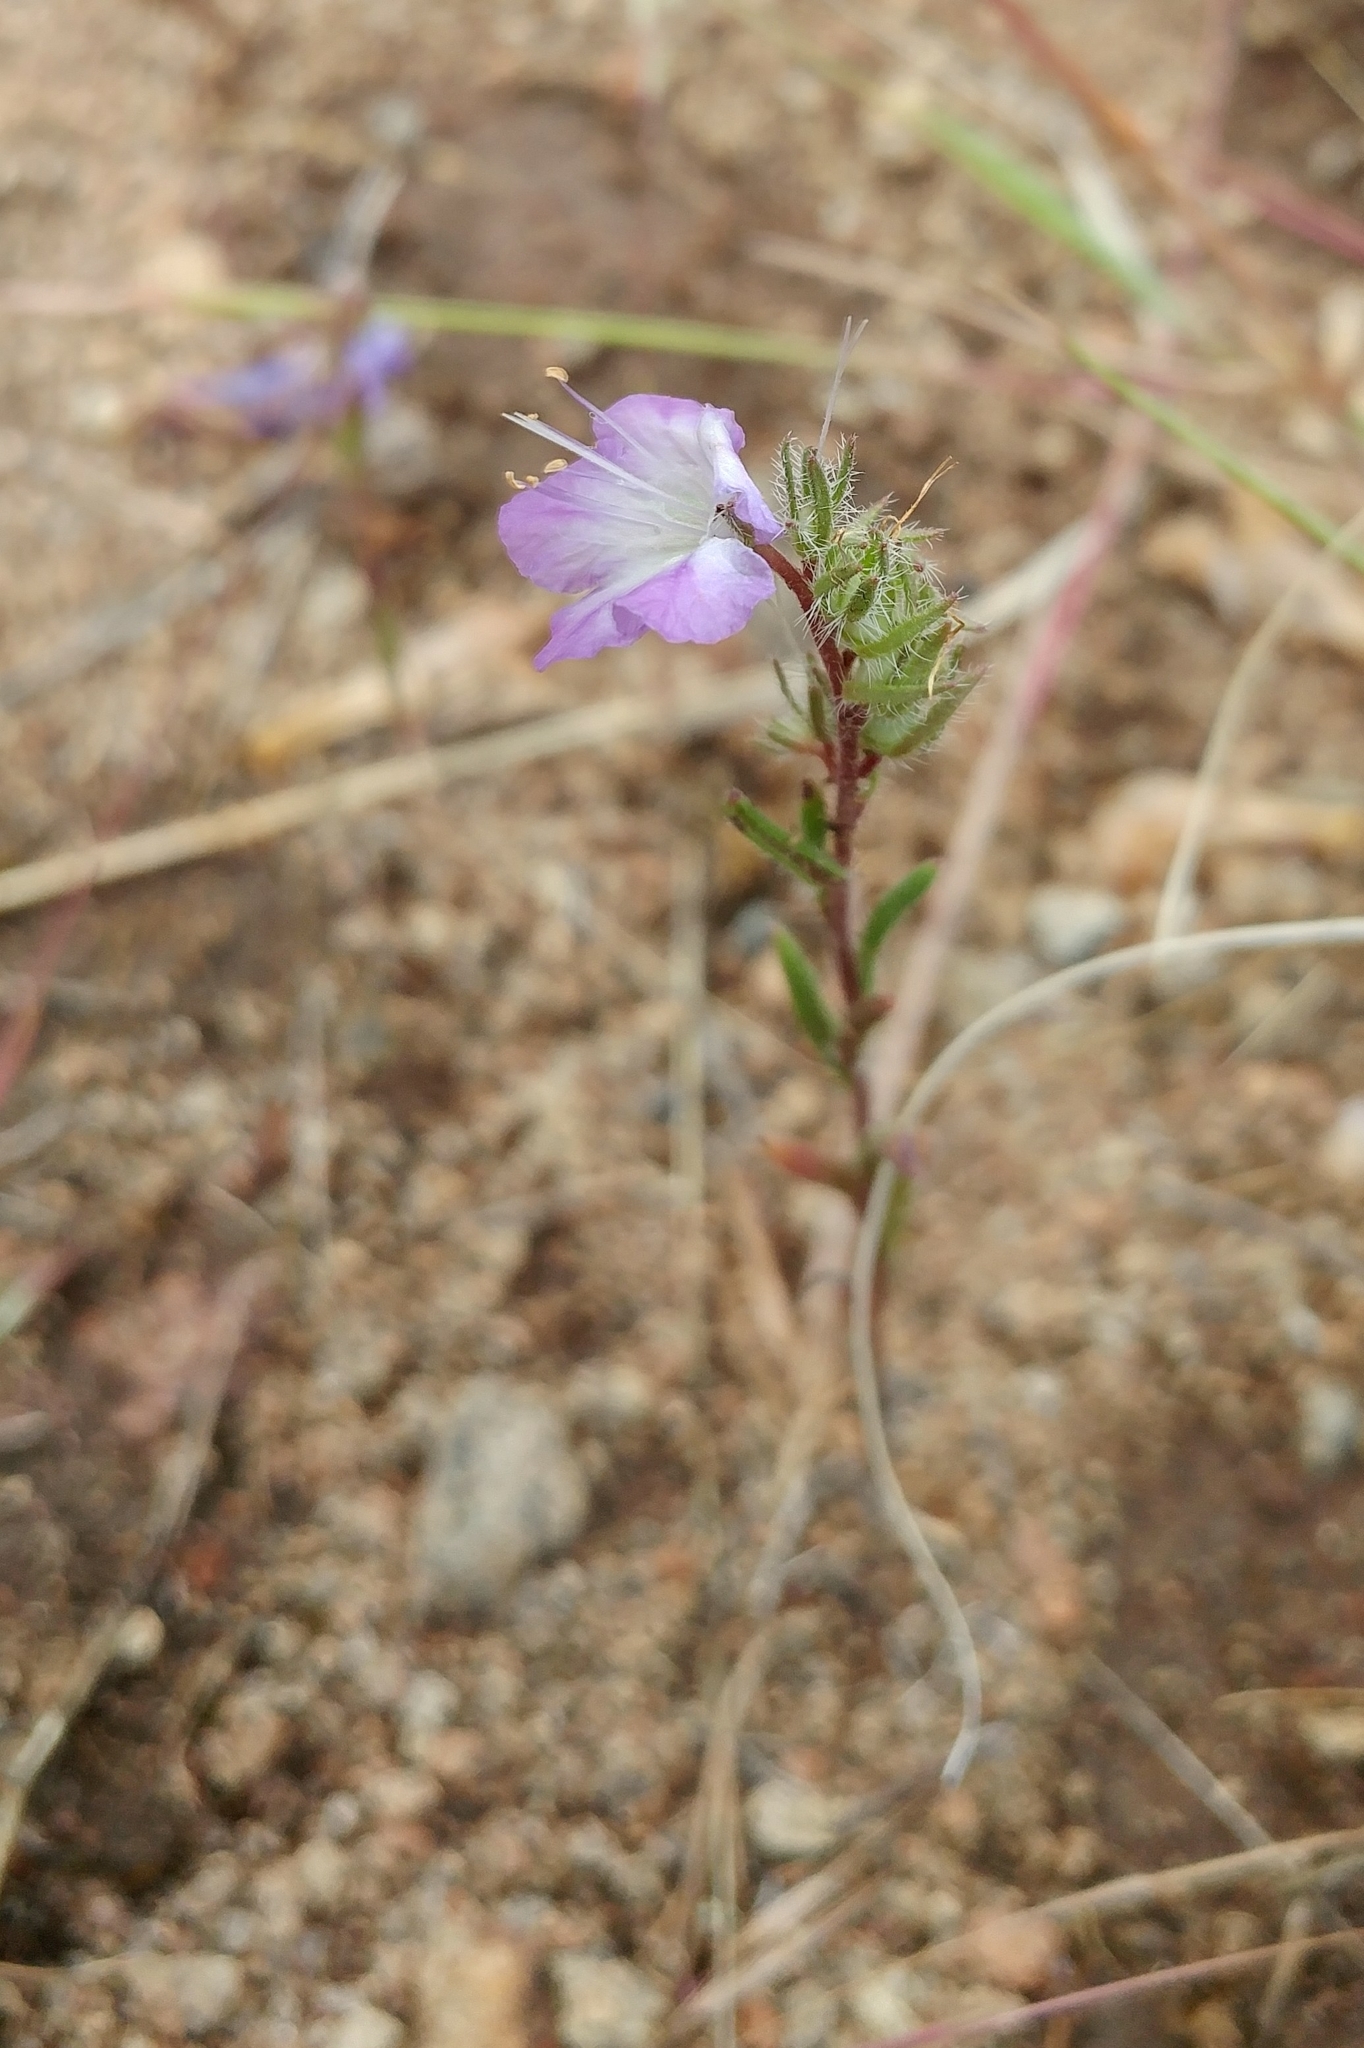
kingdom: Plantae
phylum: Tracheophyta
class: Magnoliopsida
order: Boraginales
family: Hydrophyllaceae
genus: Phacelia
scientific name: Phacelia linearis
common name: Linear-leaved phacelia
